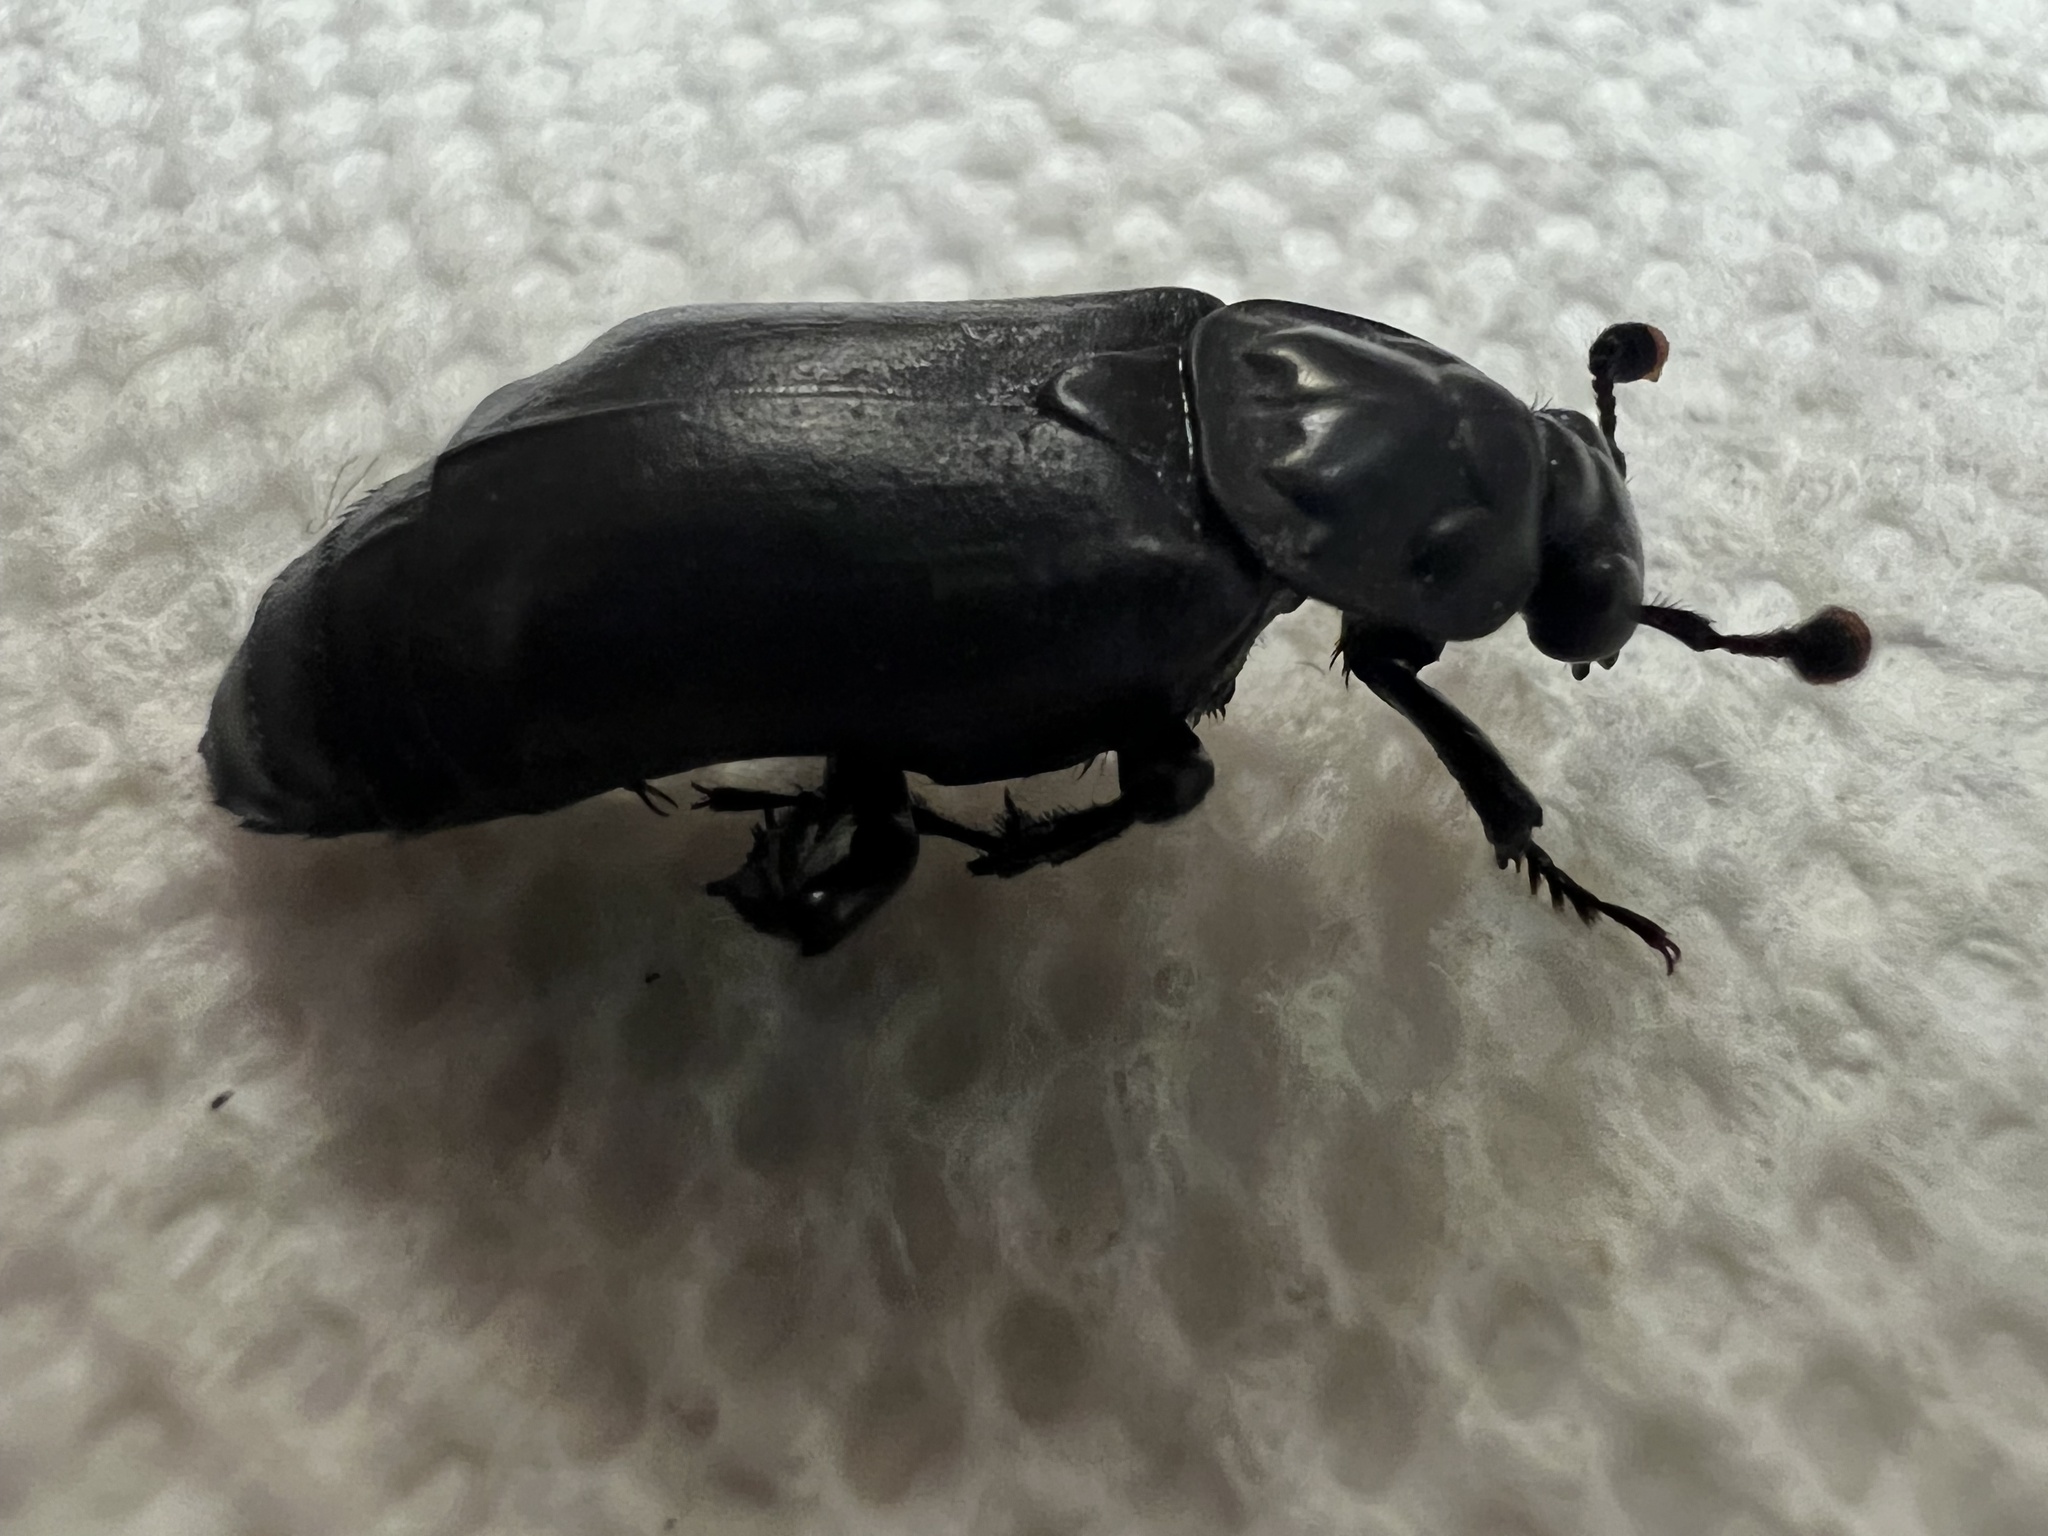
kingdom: Animalia
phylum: Arthropoda
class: Insecta
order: Coleoptera
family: Staphylinidae
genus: Nicrophorus
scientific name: Nicrophorus nigrita
